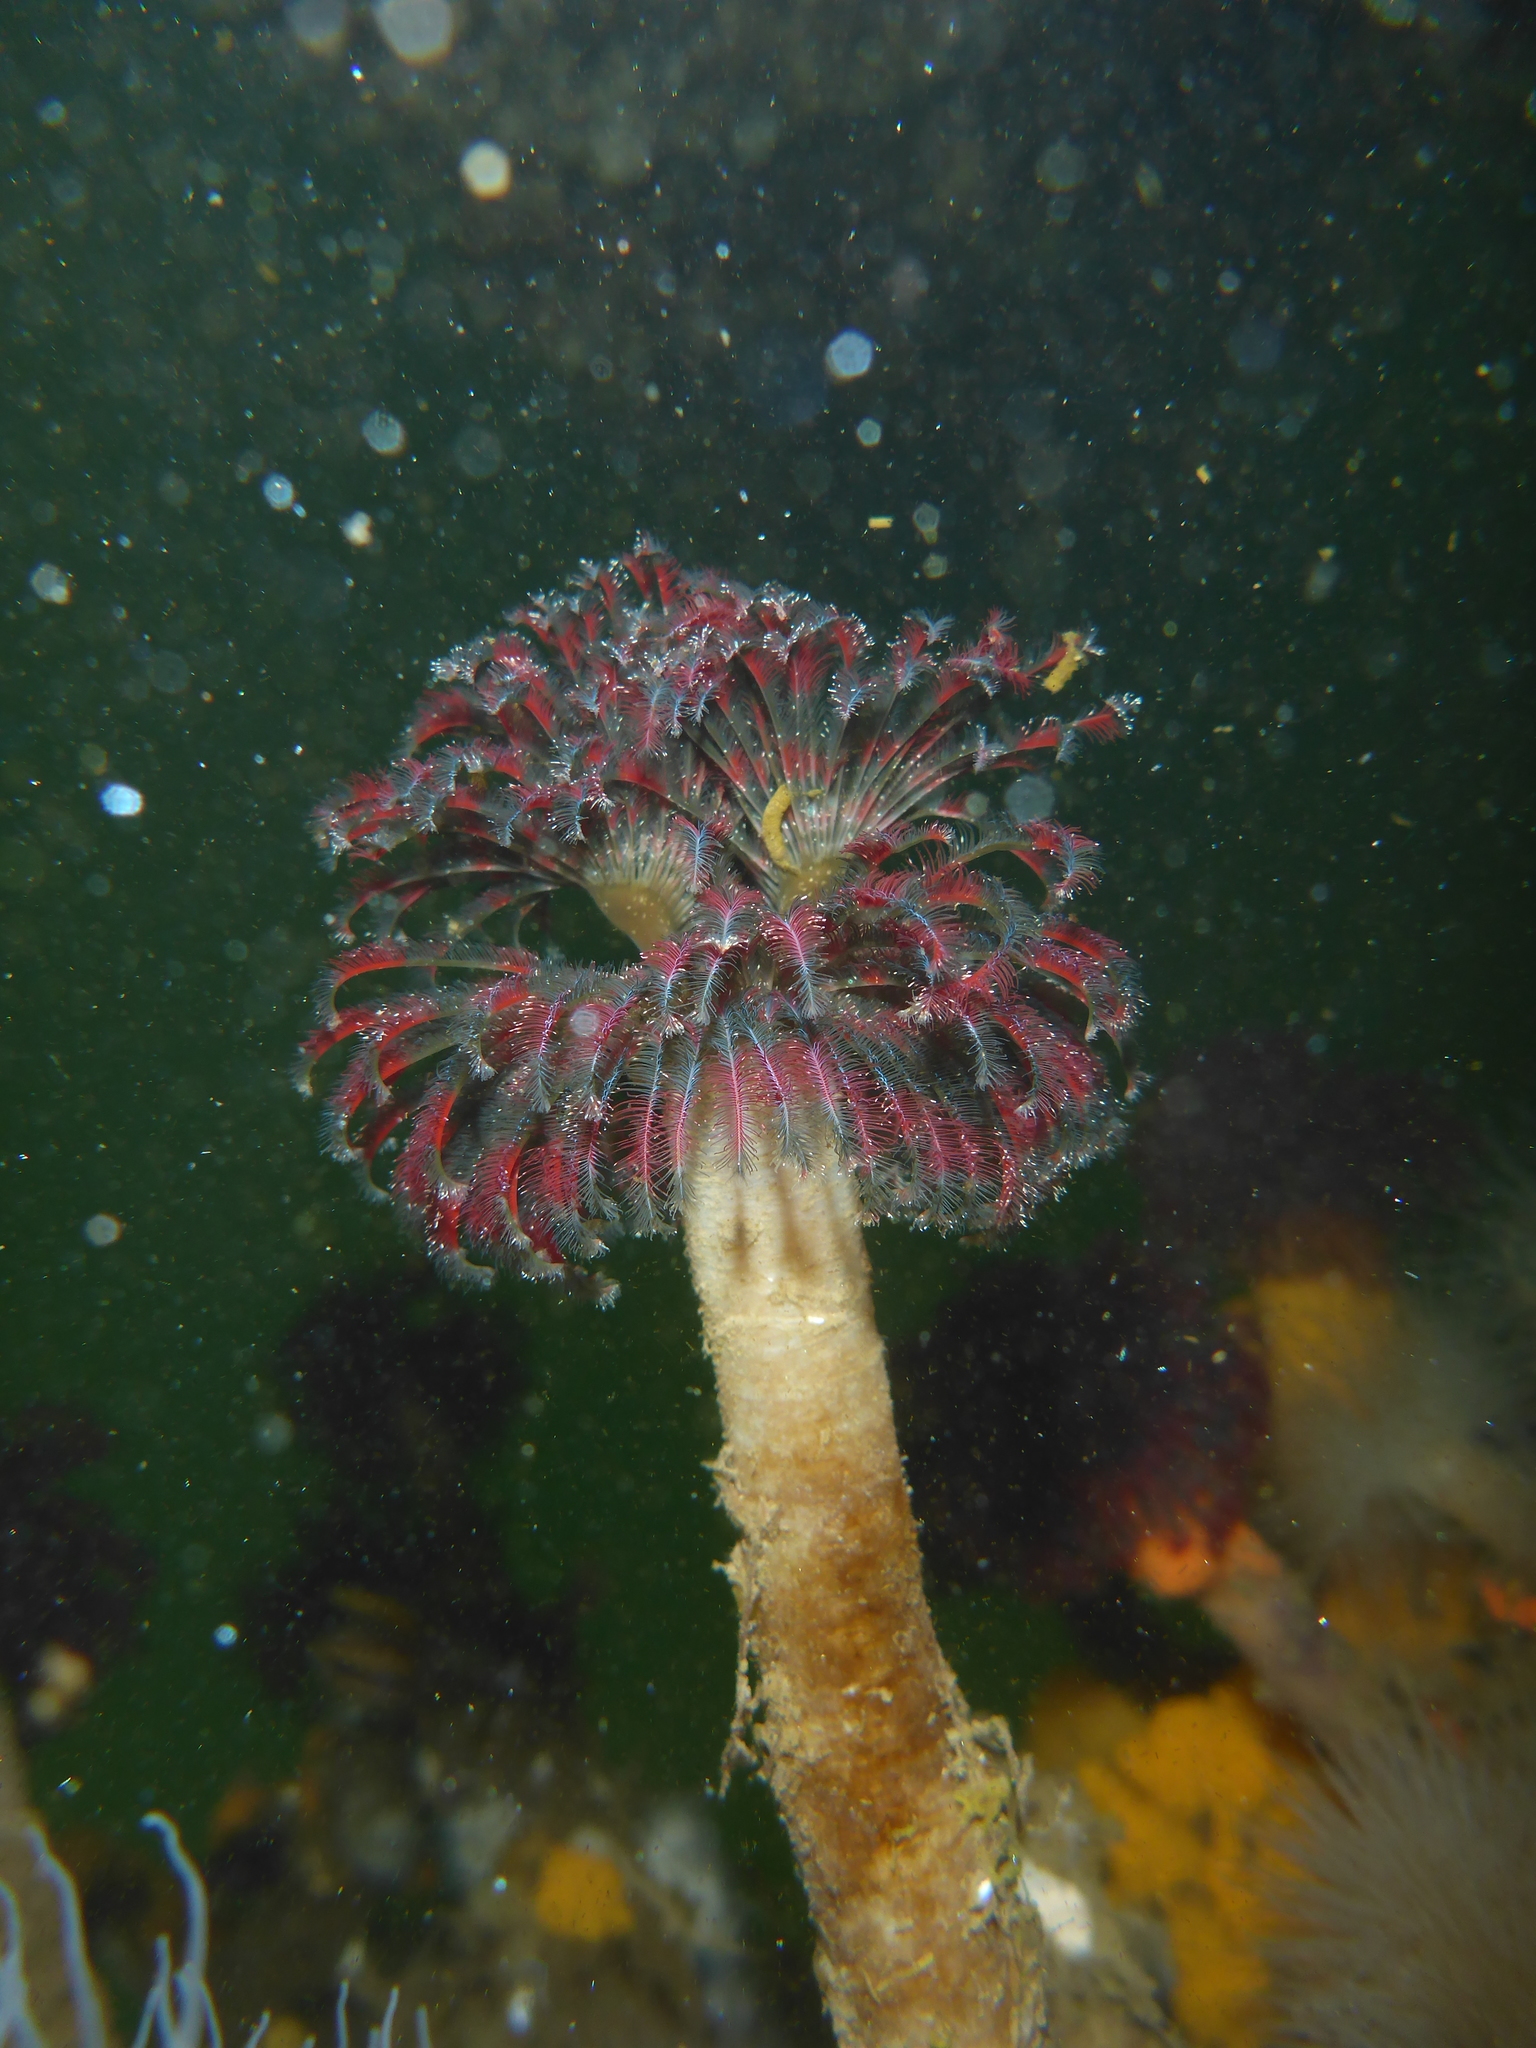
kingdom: Animalia
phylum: Annelida
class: Polychaeta
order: Sabellida
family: Sabellidae
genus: Eudistylia
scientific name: Eudistylia vancouveri
